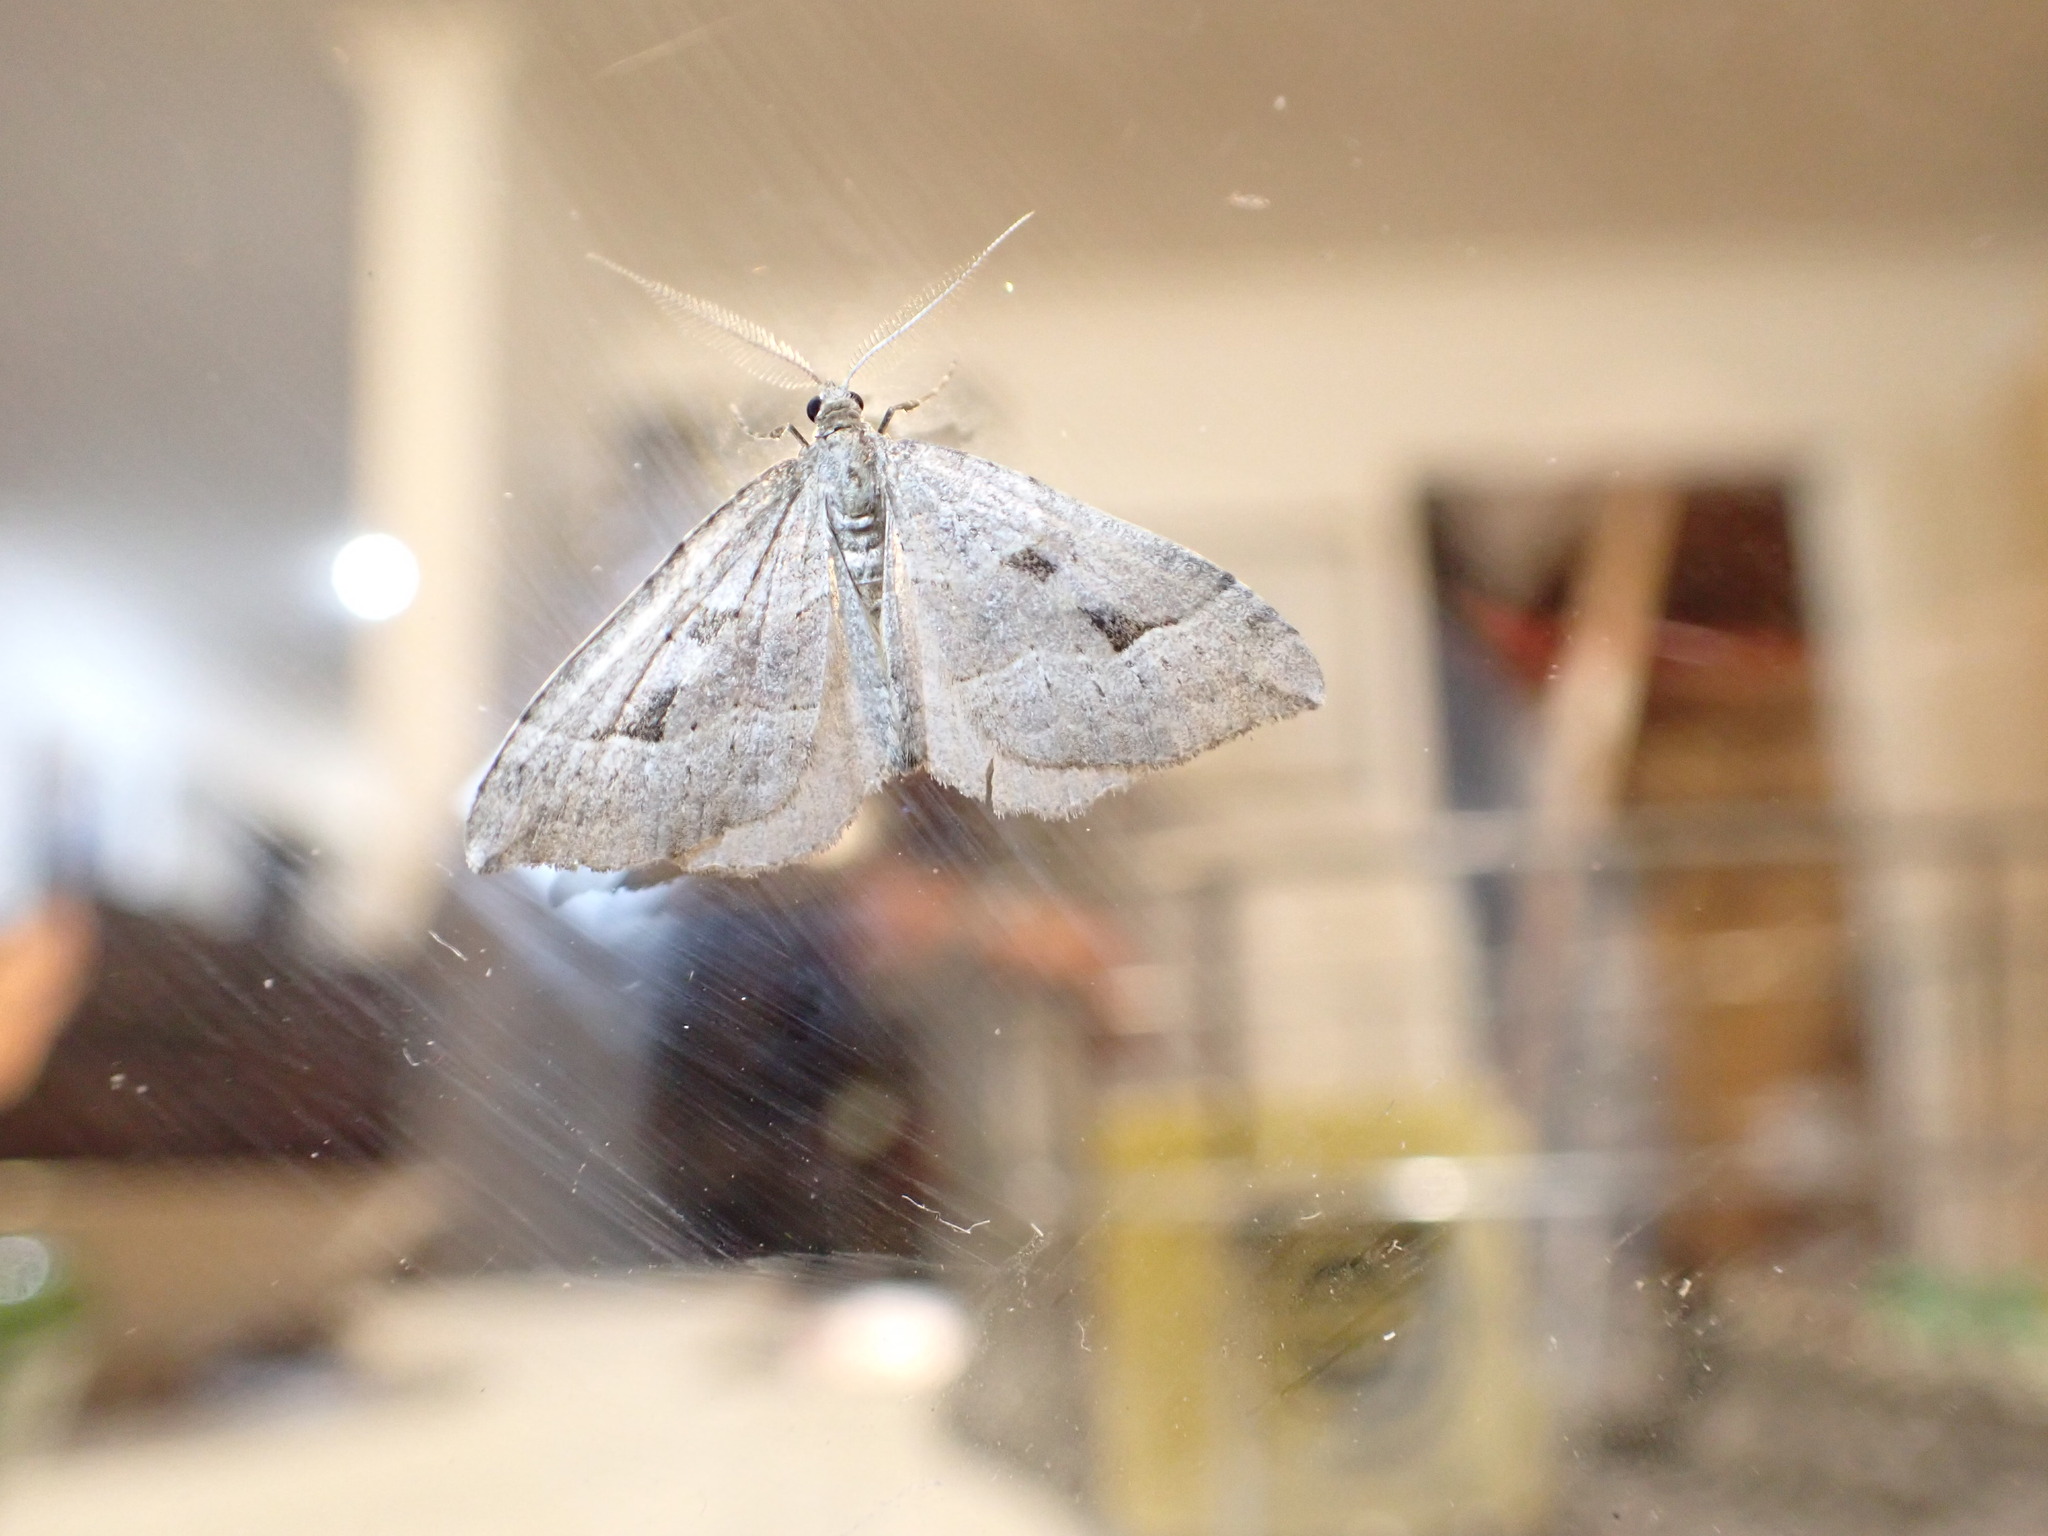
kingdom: Animalia
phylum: Arthropoda
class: Insecta
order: Lepidoptera
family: Geometridae
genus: Epyaxa
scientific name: Epyaxa rosearia
